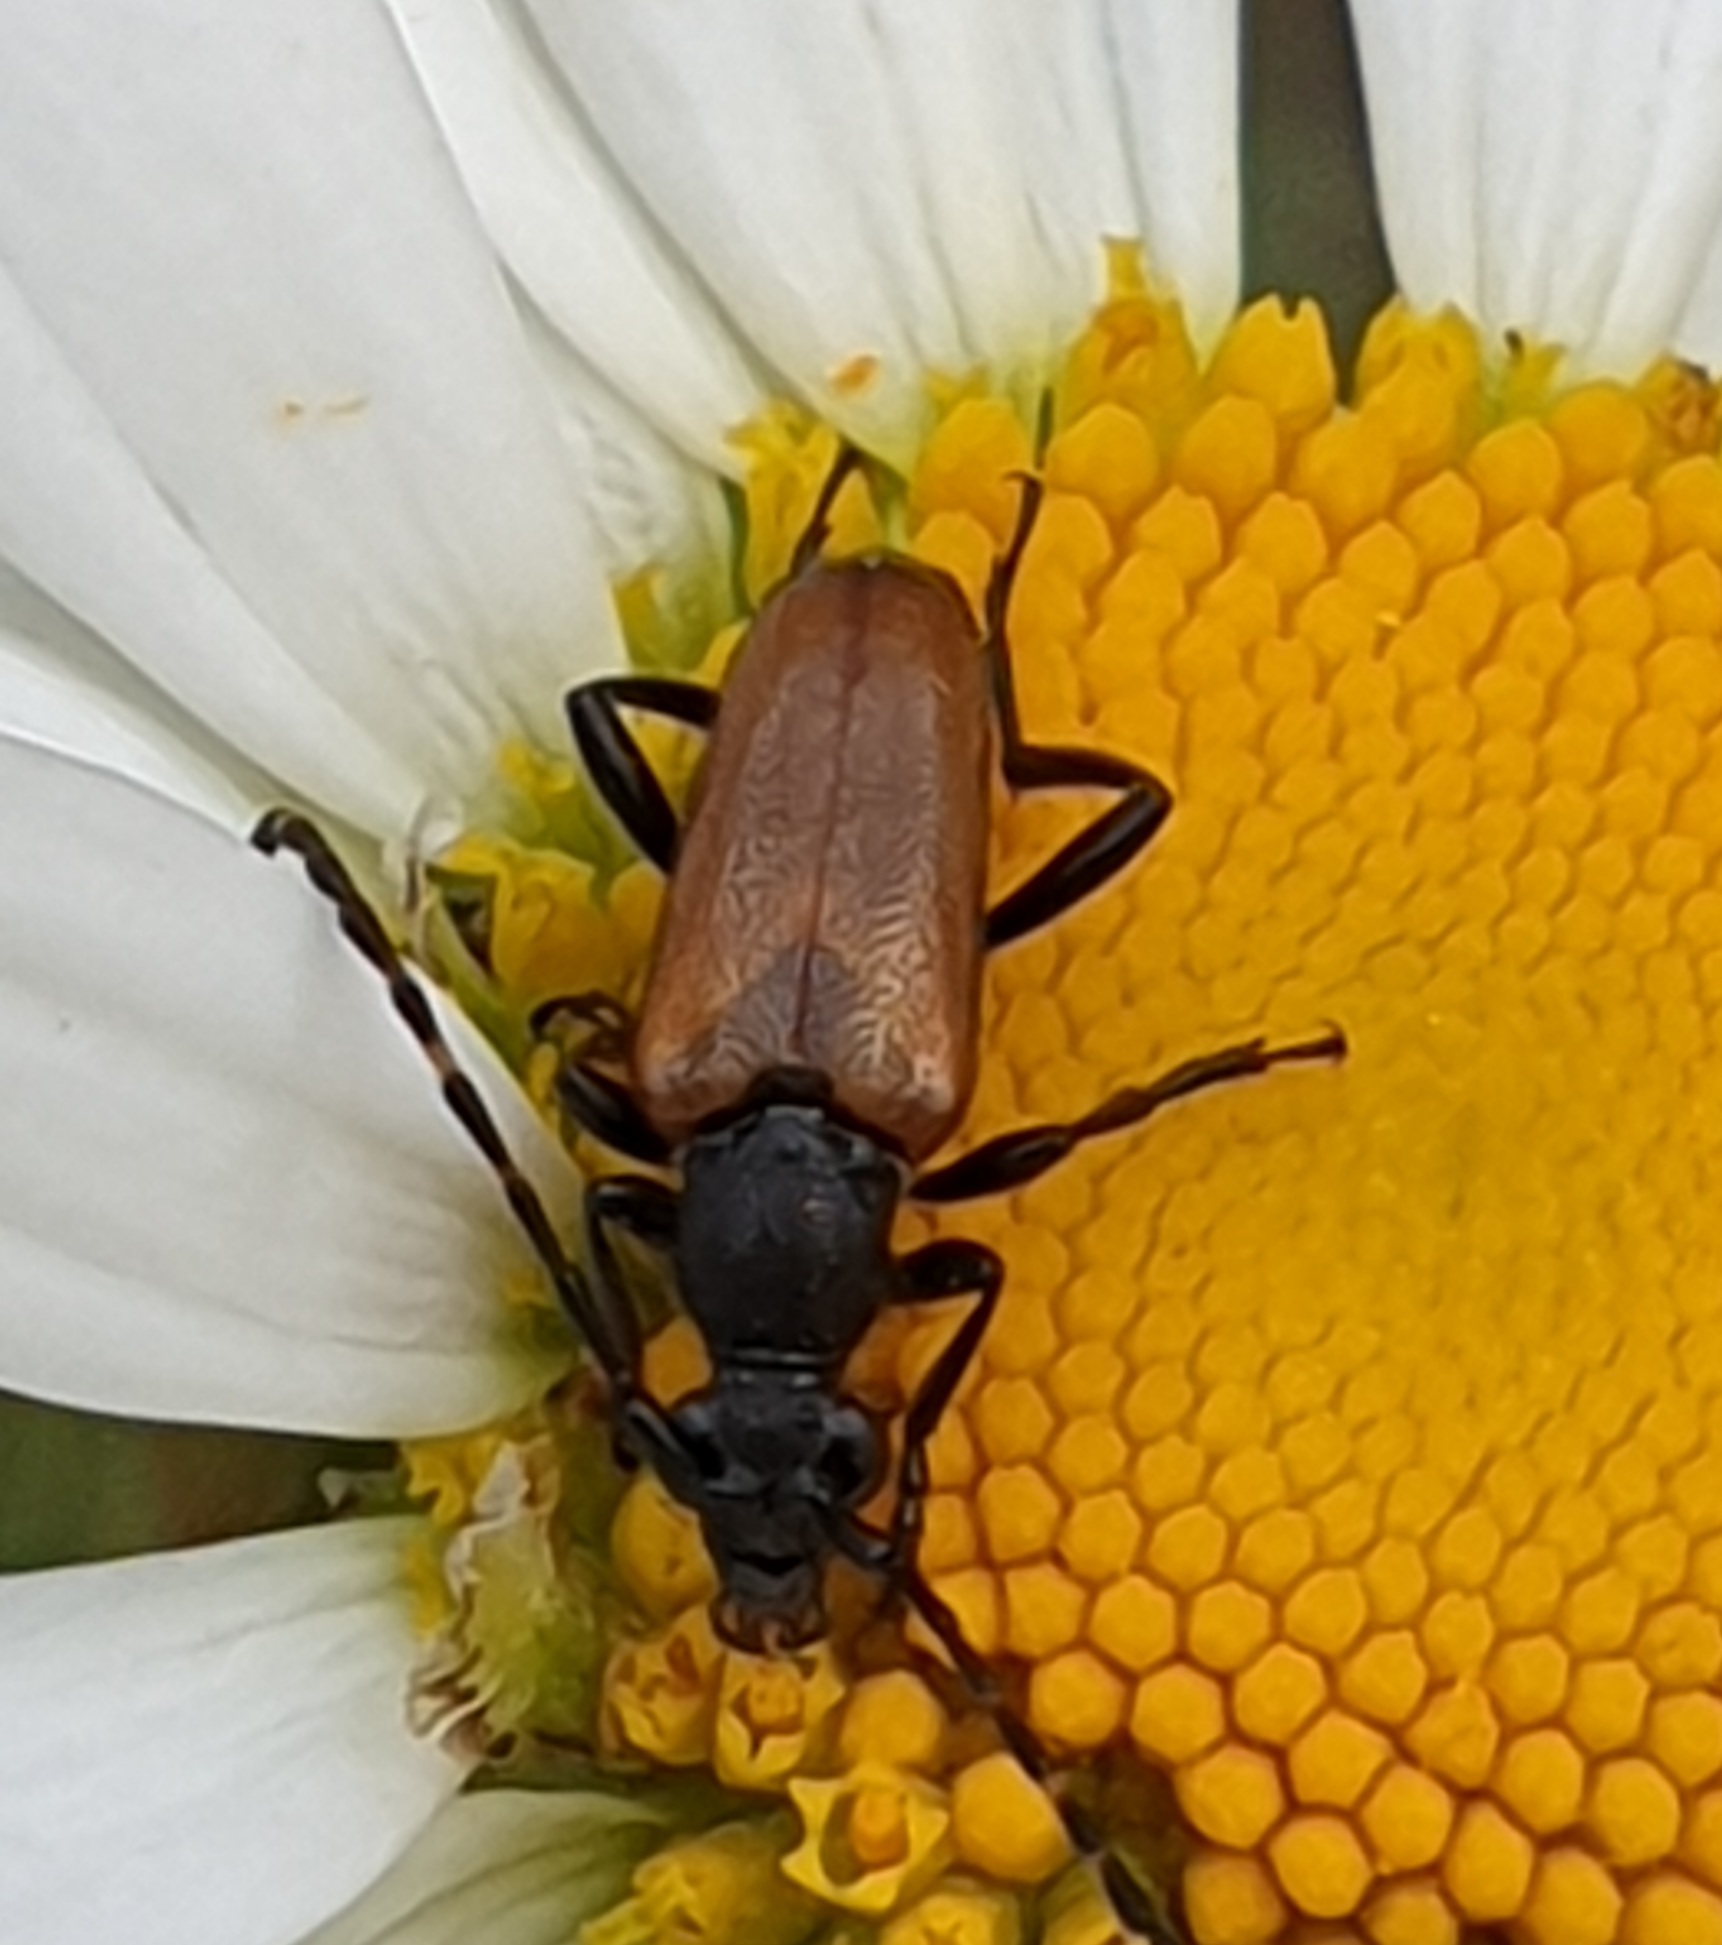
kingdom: Animalia
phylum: Arthropoda
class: Insecta
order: Coleoptera
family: Cerambycidae
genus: Paracorymbia
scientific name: Paracorymbia maculicornis
